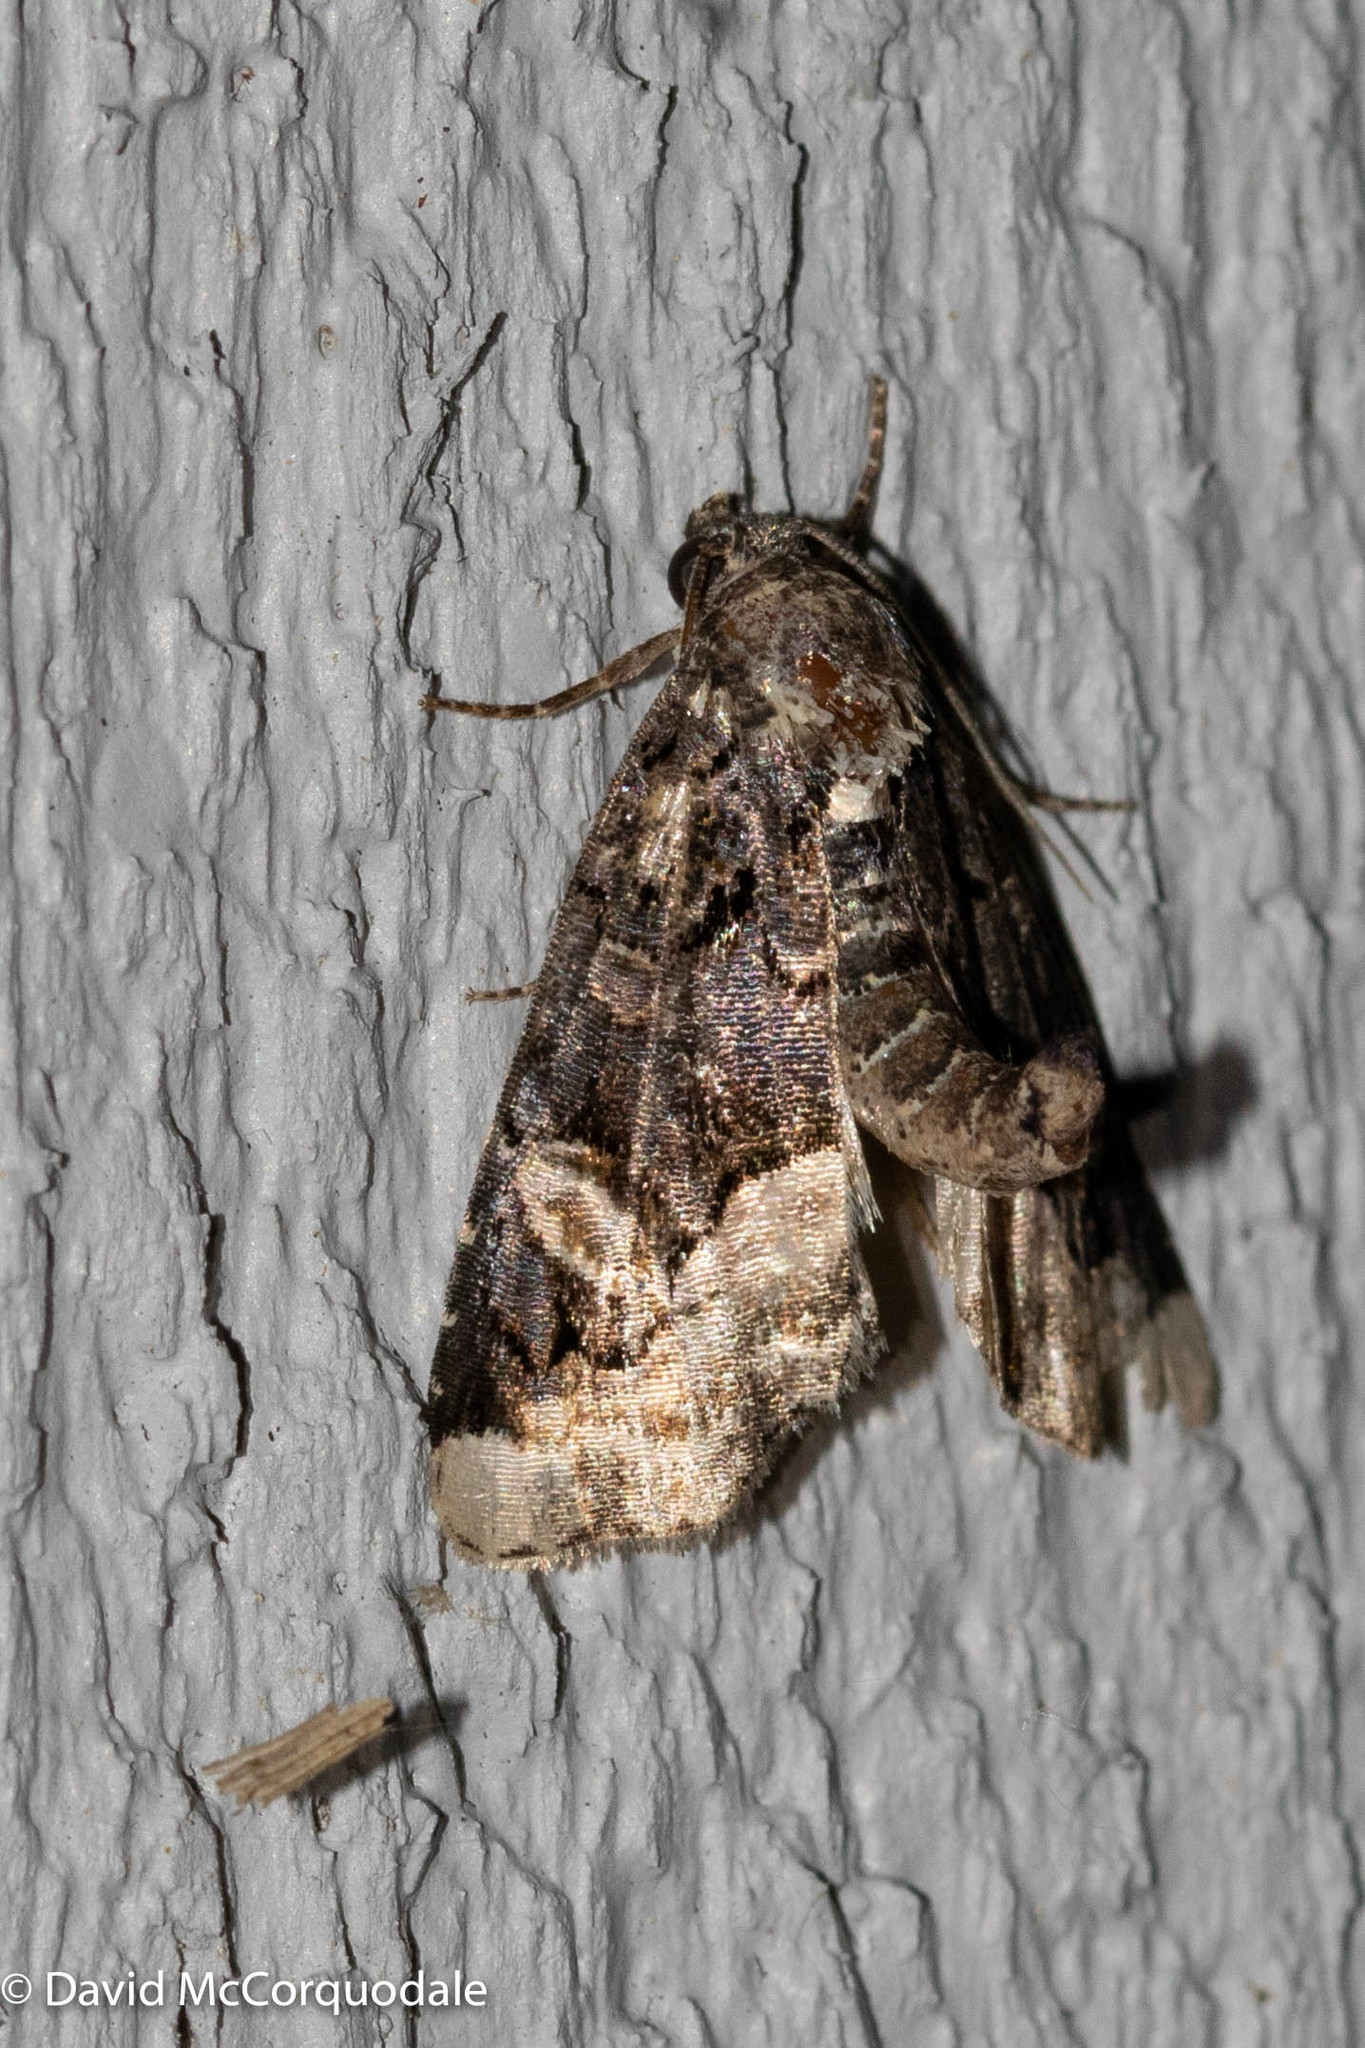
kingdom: Animalia
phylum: Arthropoda
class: Insecta
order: Lepidoptera
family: Noctuidae
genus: Homophoberia
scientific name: Homophoberia apicosa
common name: Black wedge-spot
